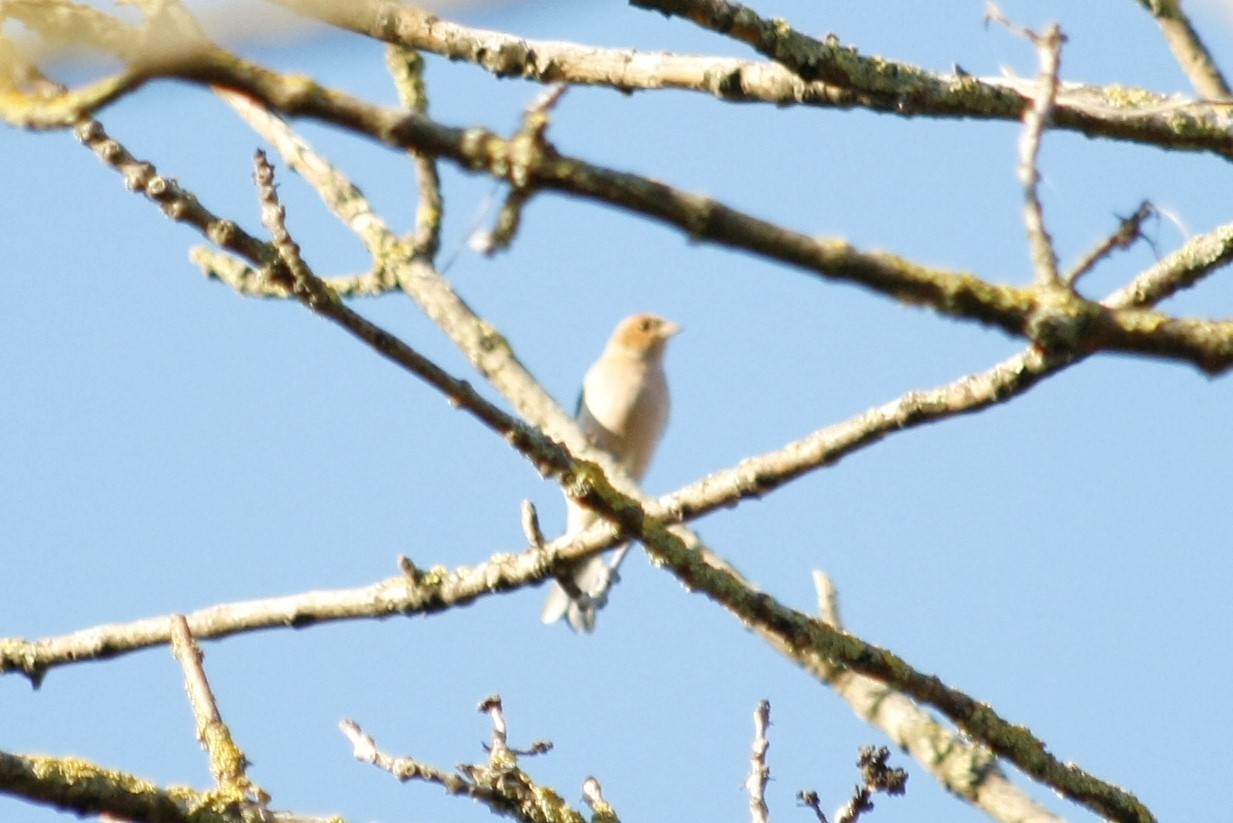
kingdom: Animalia
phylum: Chordata
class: Aves
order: Passeriformes
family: Fringillidae
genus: Fringilla
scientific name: Fringilla coelebs
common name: Common chaffinch
